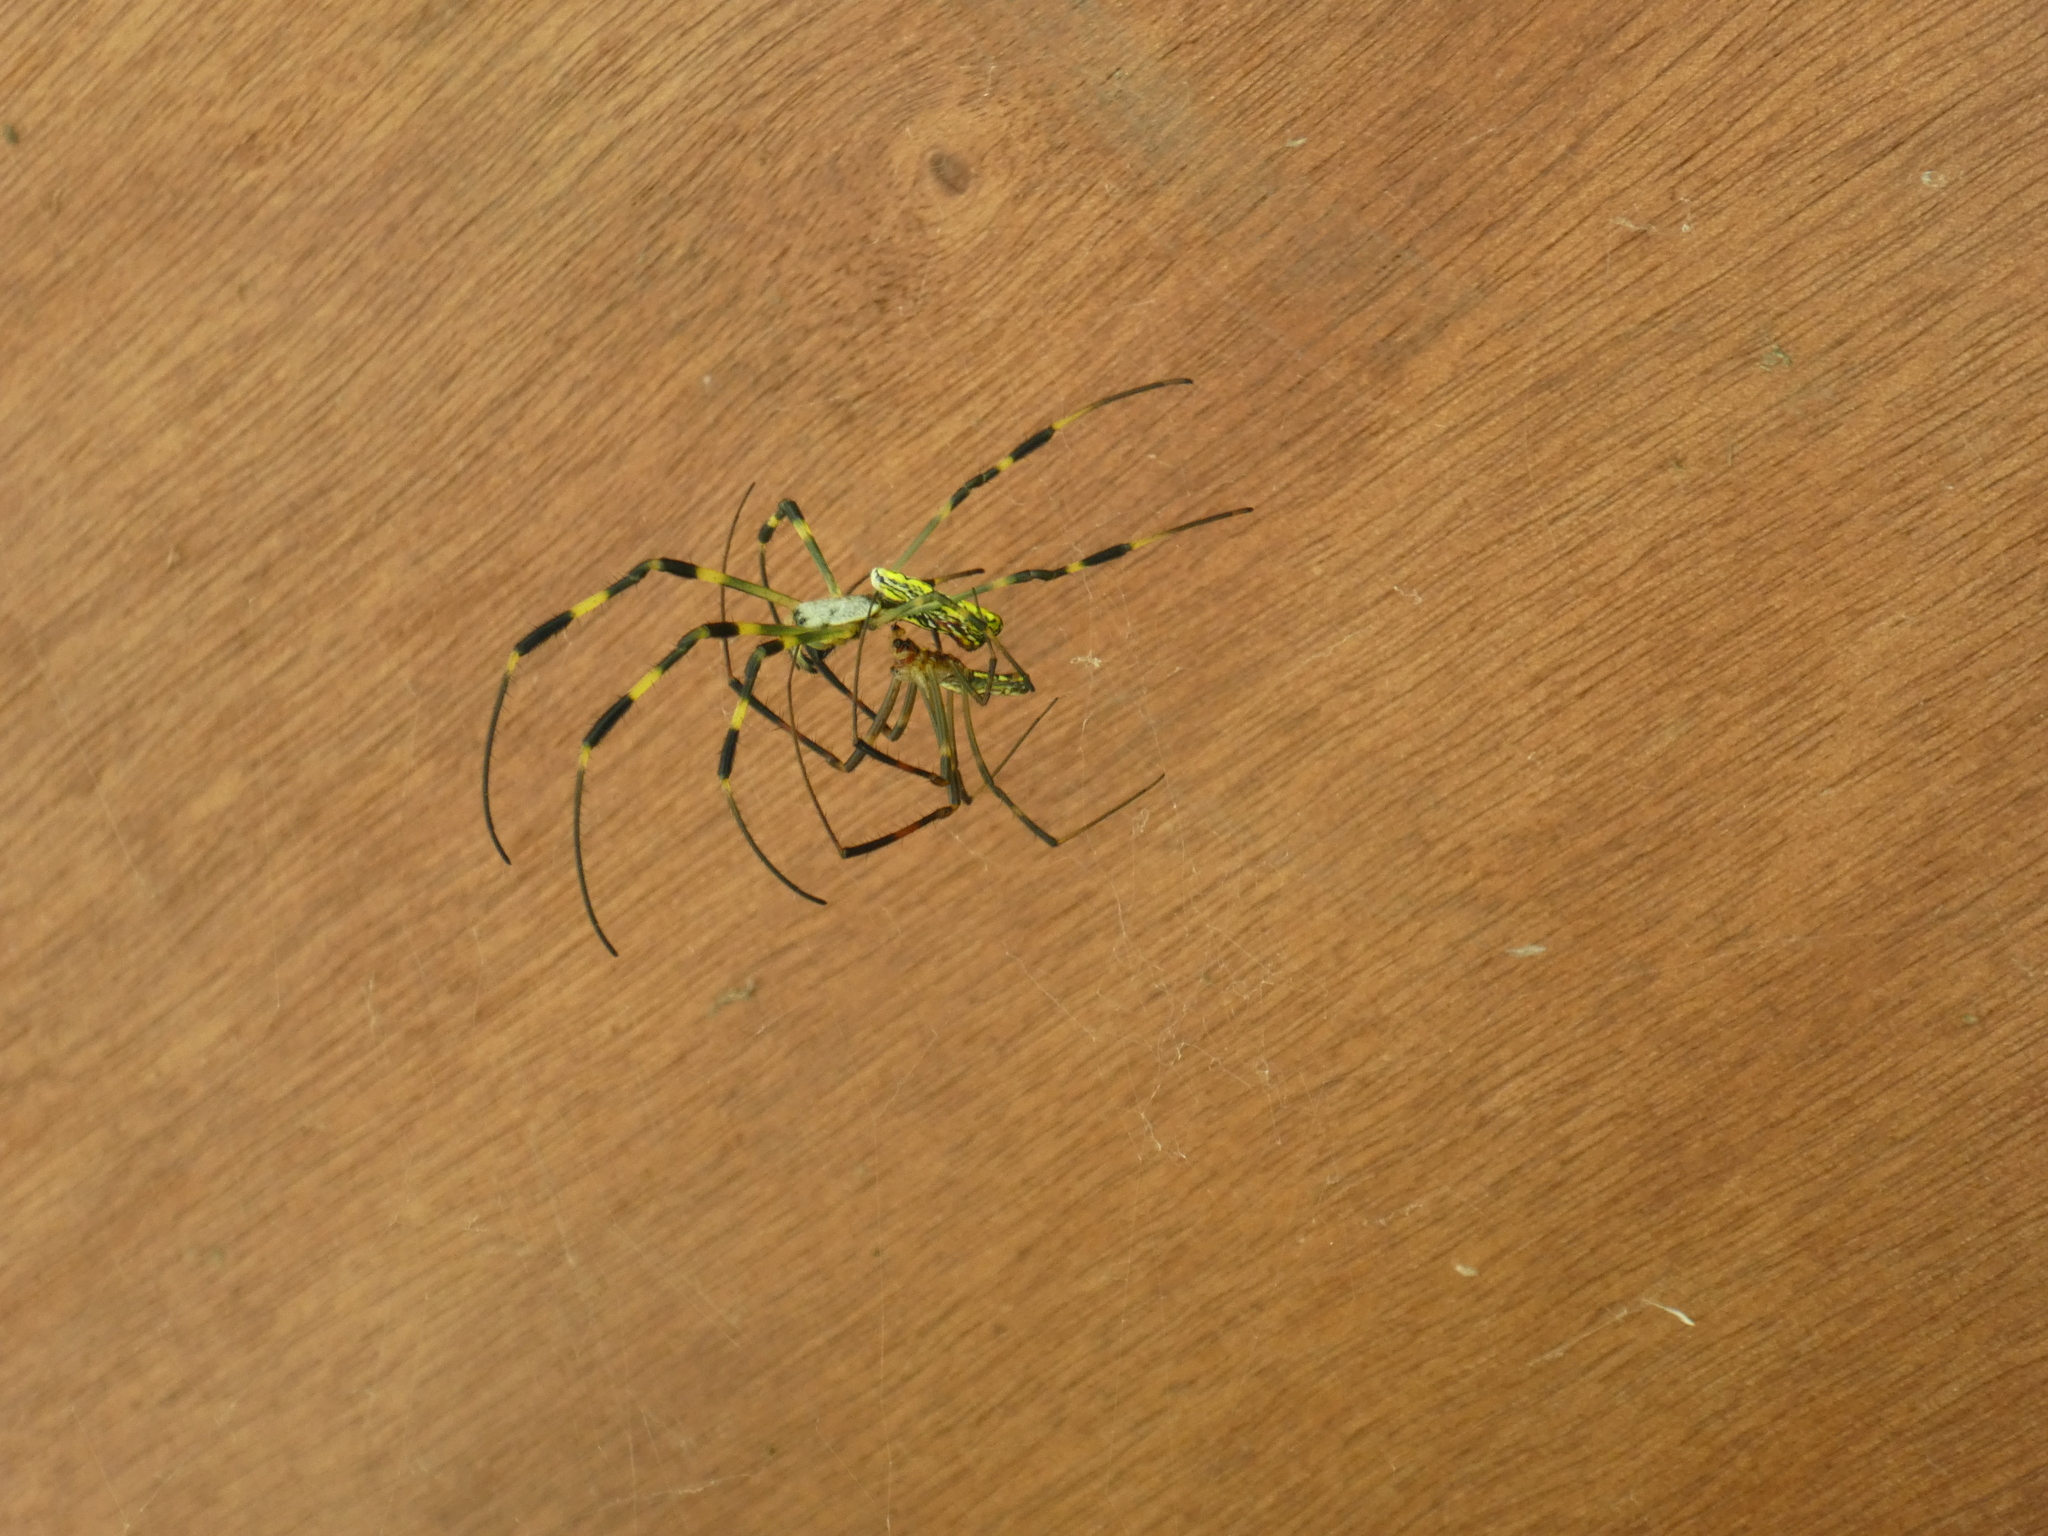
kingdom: Animalia
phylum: Arthropoda
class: Arachnida
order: Araneae
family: Araneidae
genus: Trichonephila
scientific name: Trichonephila clavata
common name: Jorō spider
